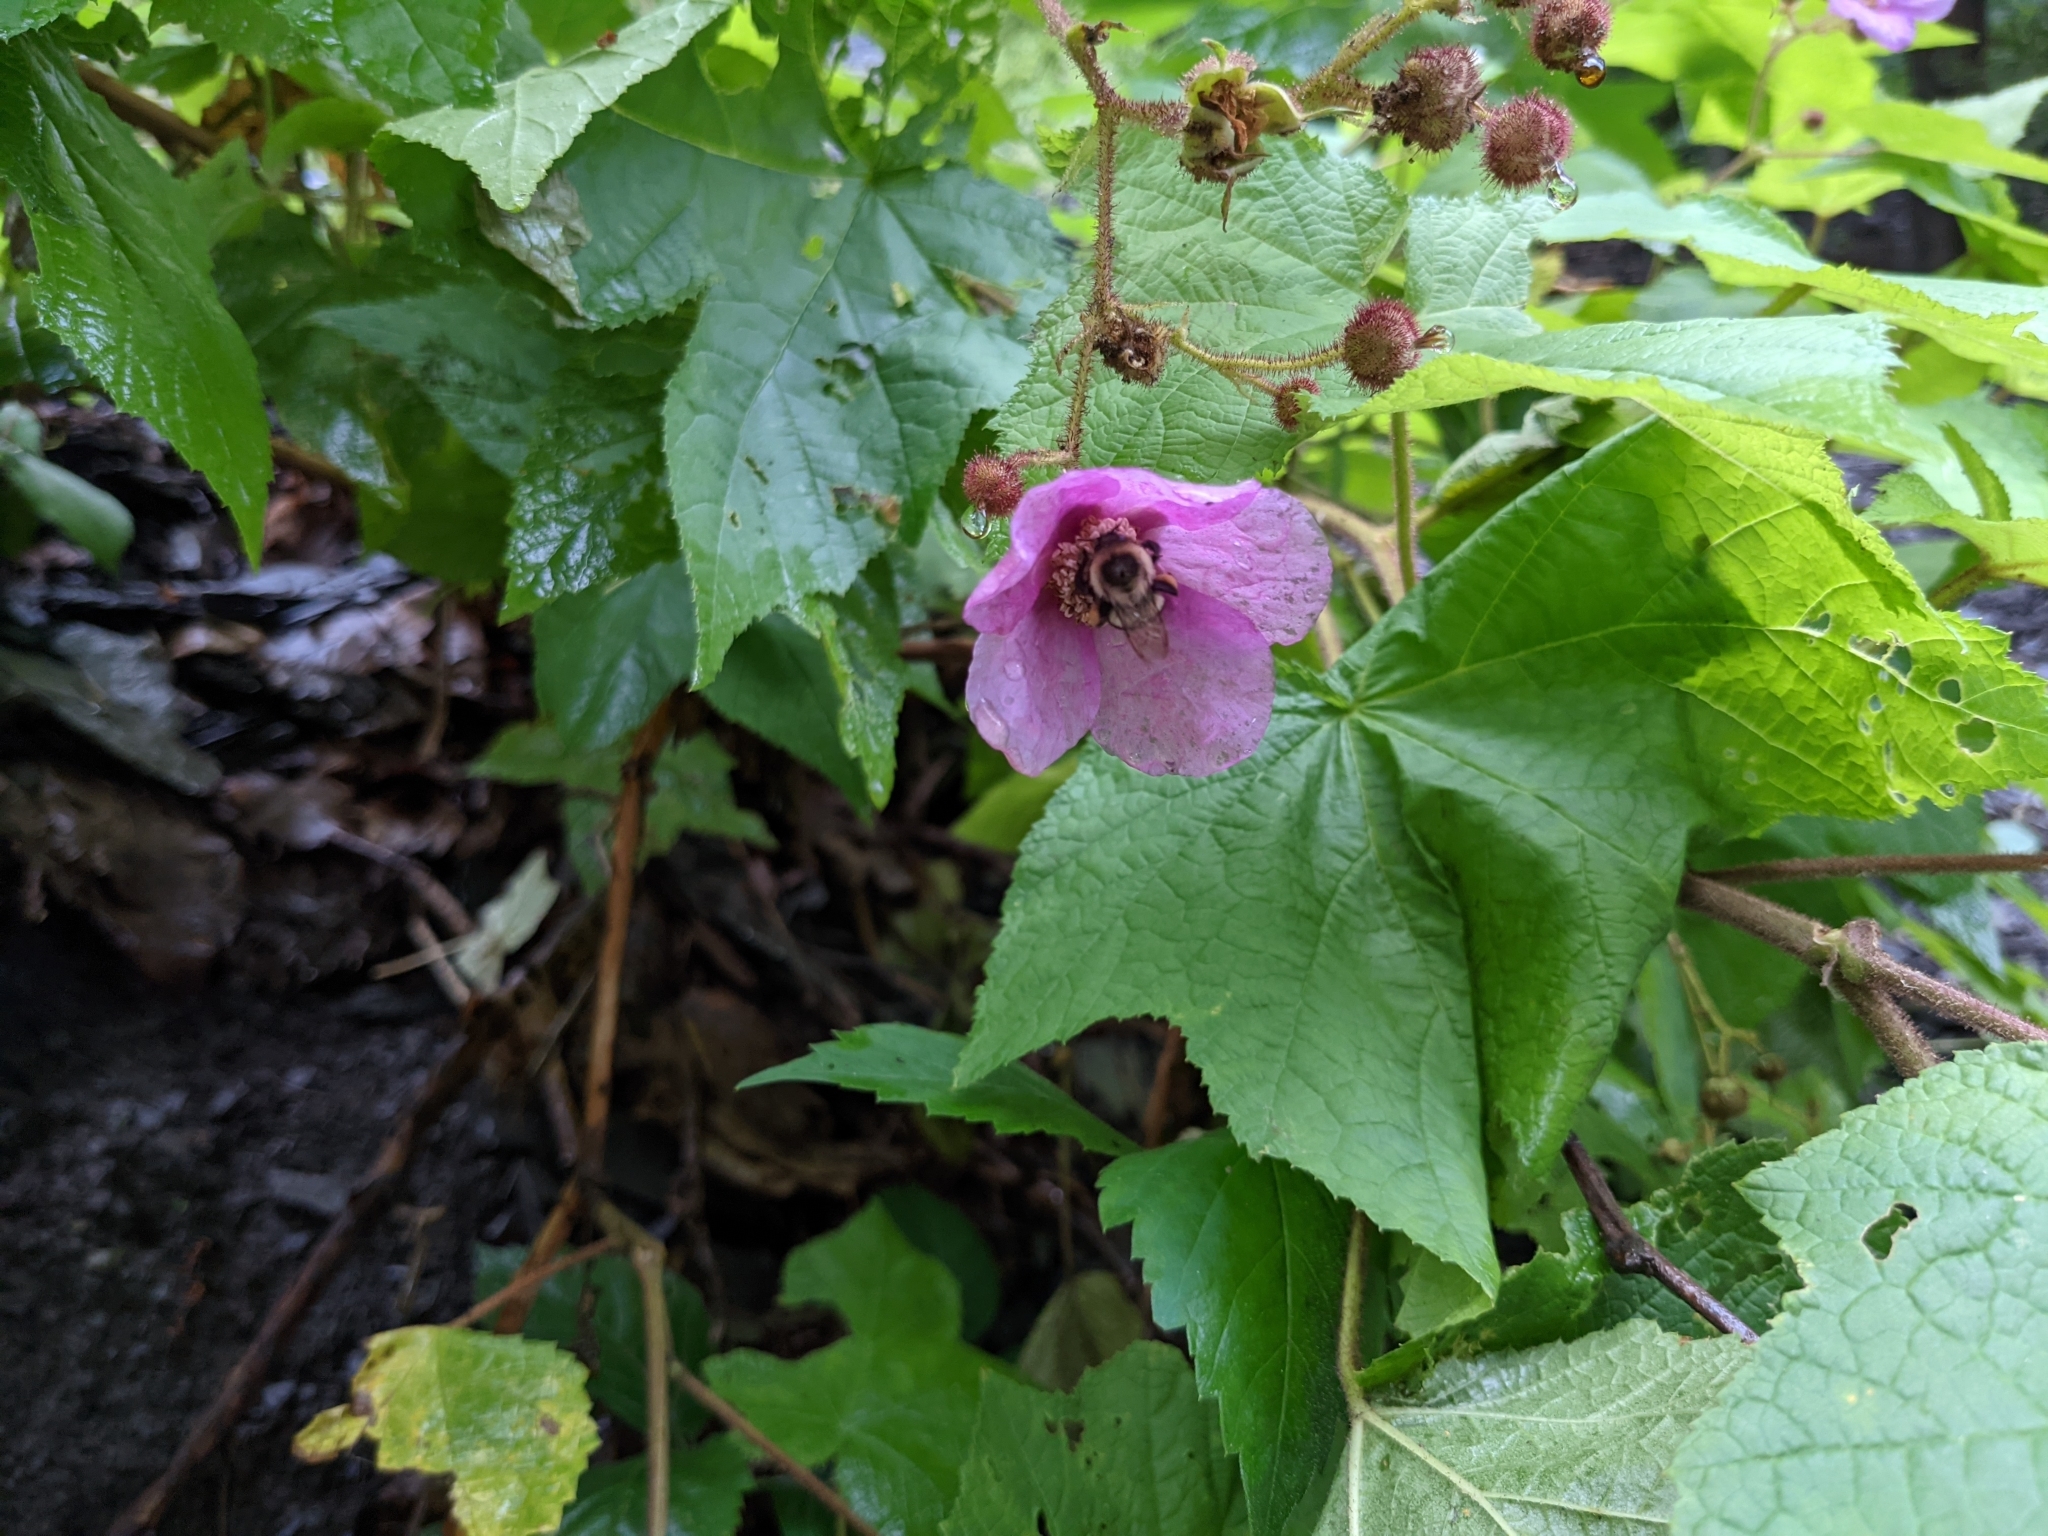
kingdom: Animalia
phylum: Arthropoda
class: Insecta
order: Hymenoptera
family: Apidae
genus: Bombus
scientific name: Bombus impatiens
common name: Common eastern bumble bee
